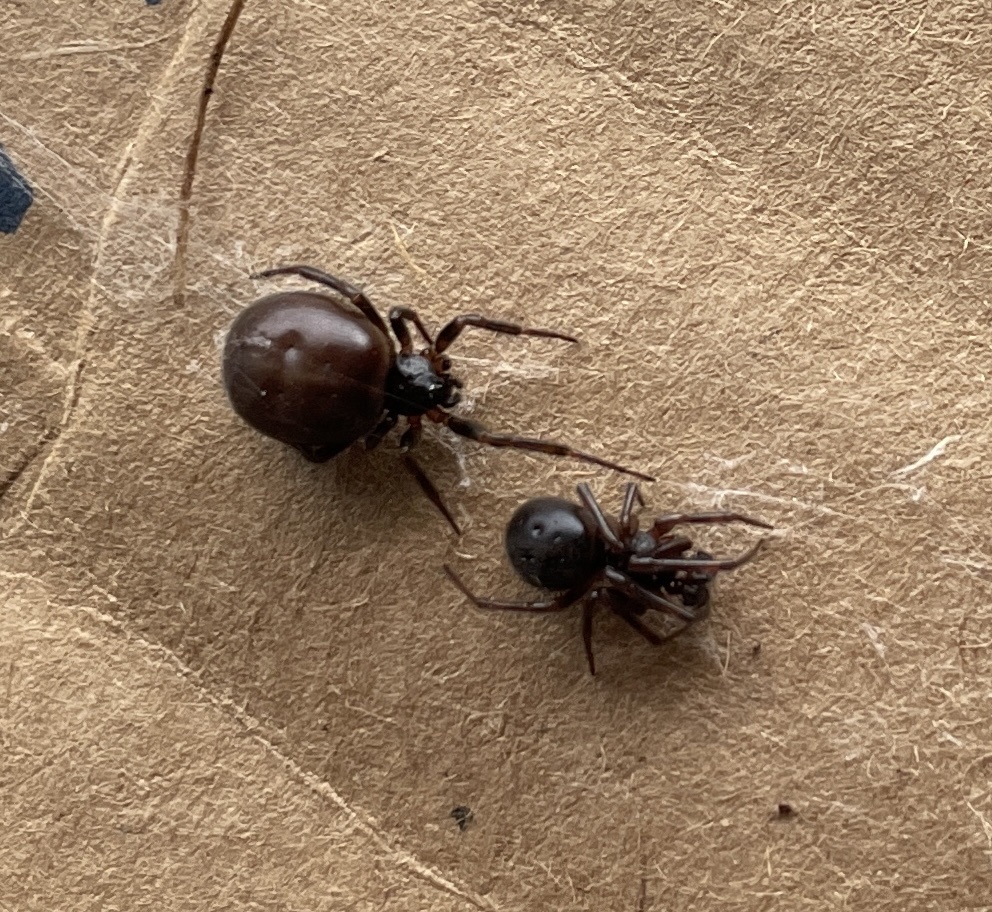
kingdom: Animalia
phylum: Arthropoda
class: Arachnida
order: Araneae
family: Theridiidae
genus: Steatoda
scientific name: Steatoda borealis
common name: Boreal combfoot
